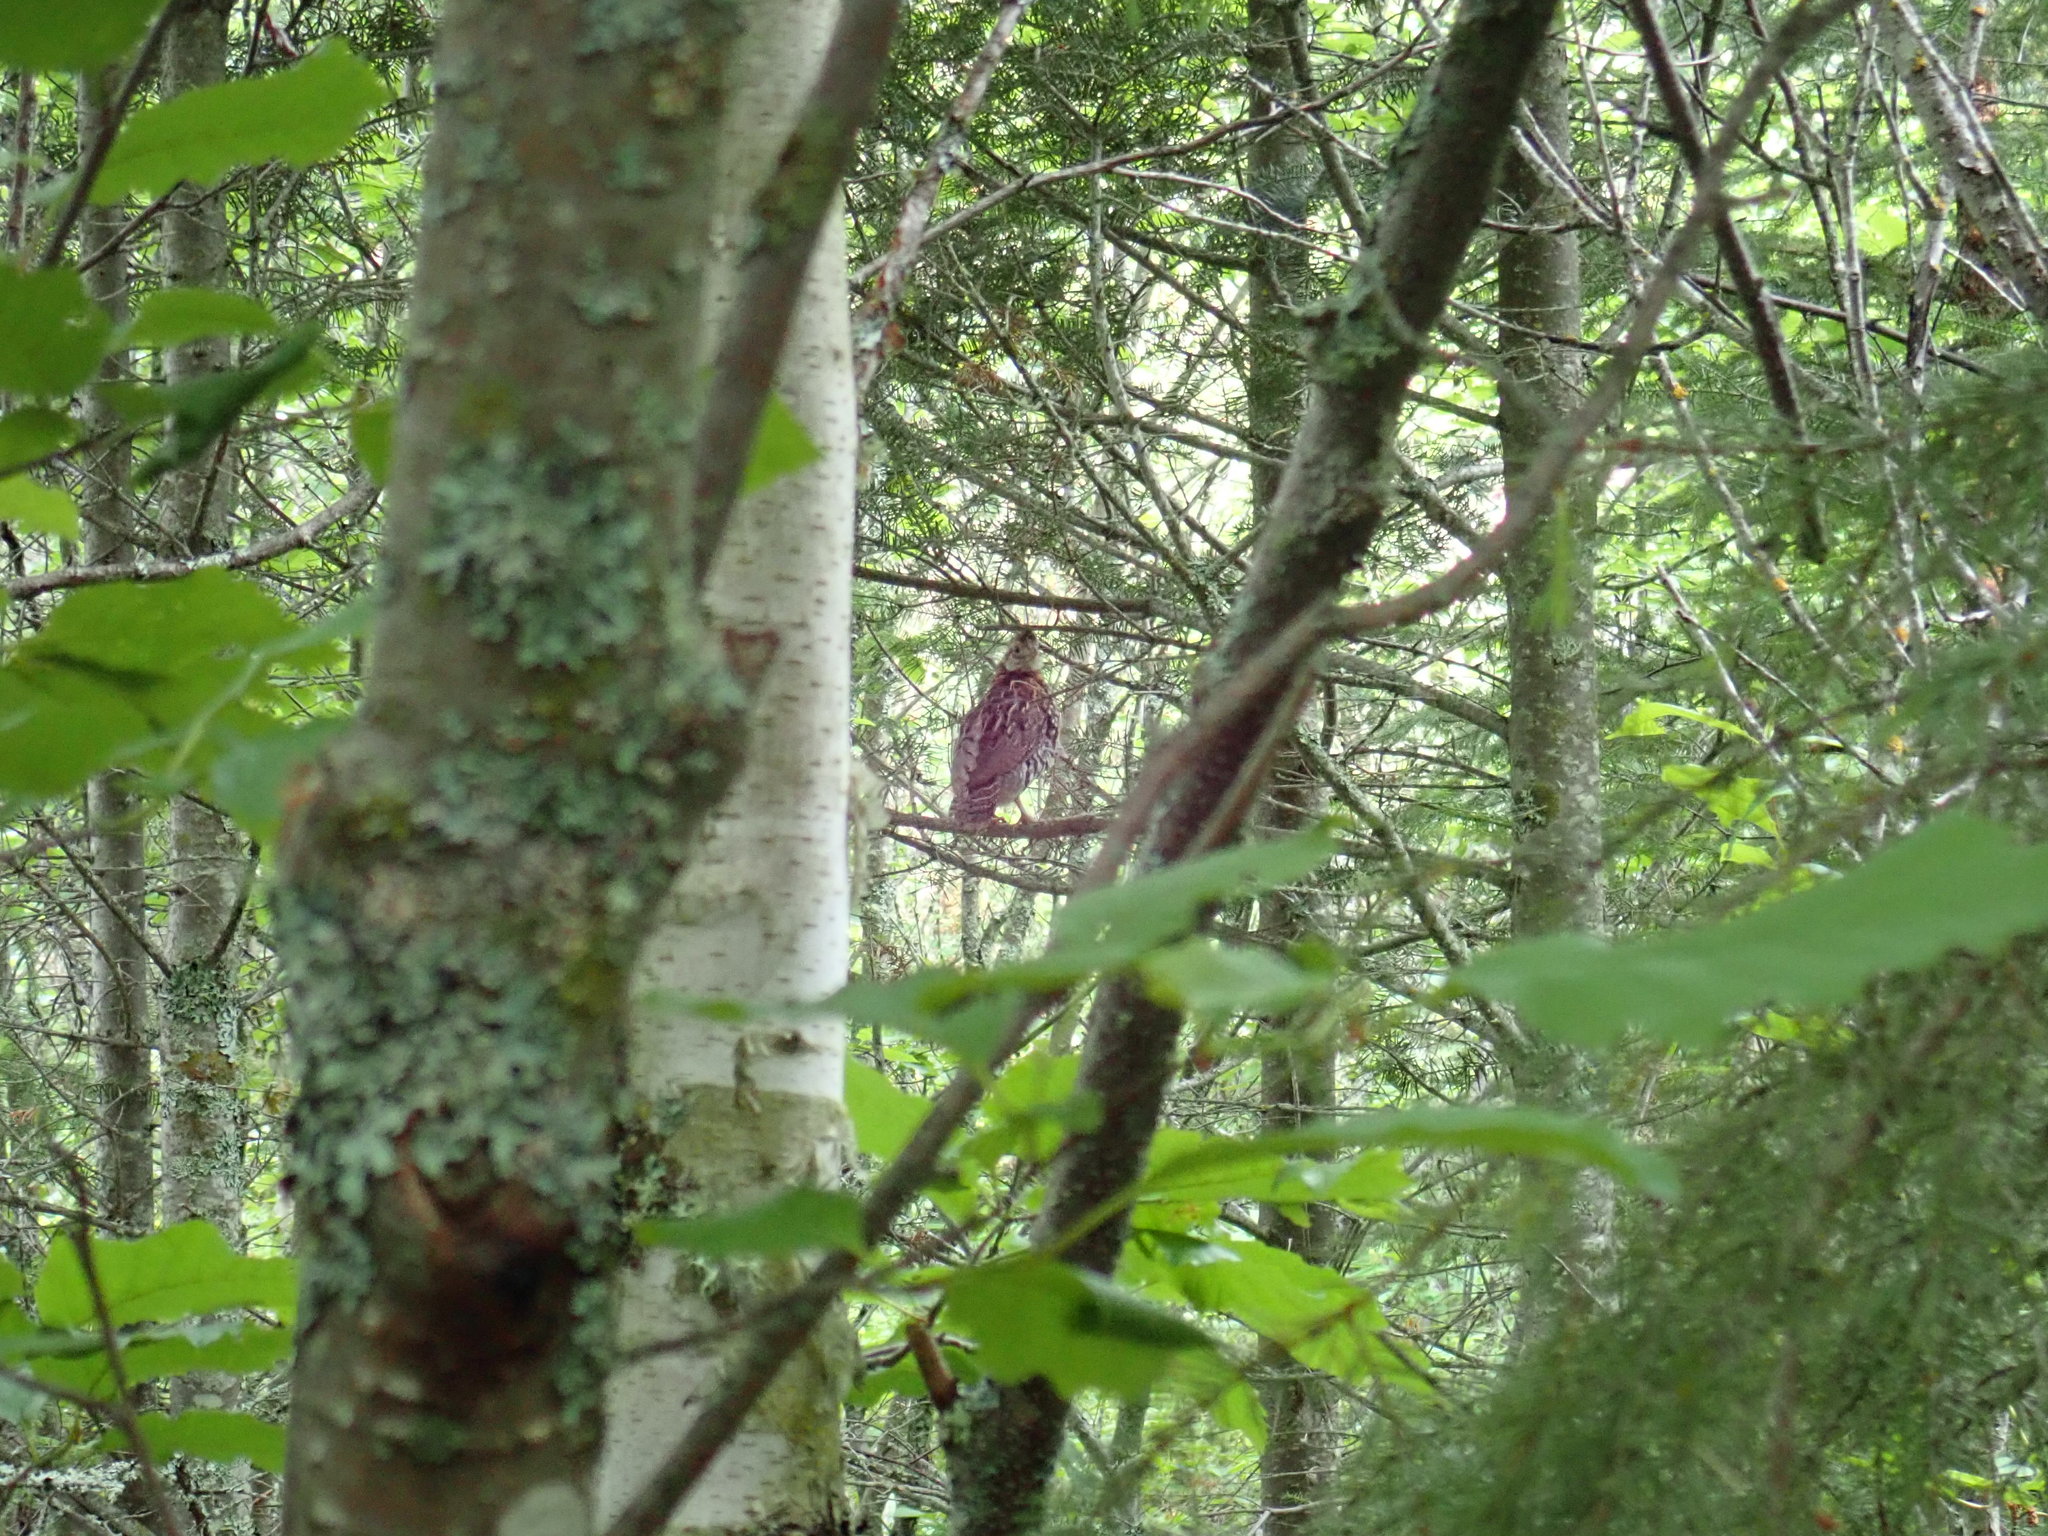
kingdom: Animalia
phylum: Chordata
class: Aves
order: Galliformes
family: Phasianidae
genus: Bonasa
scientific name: Bonasa umbellus
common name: Ruffed grouse
